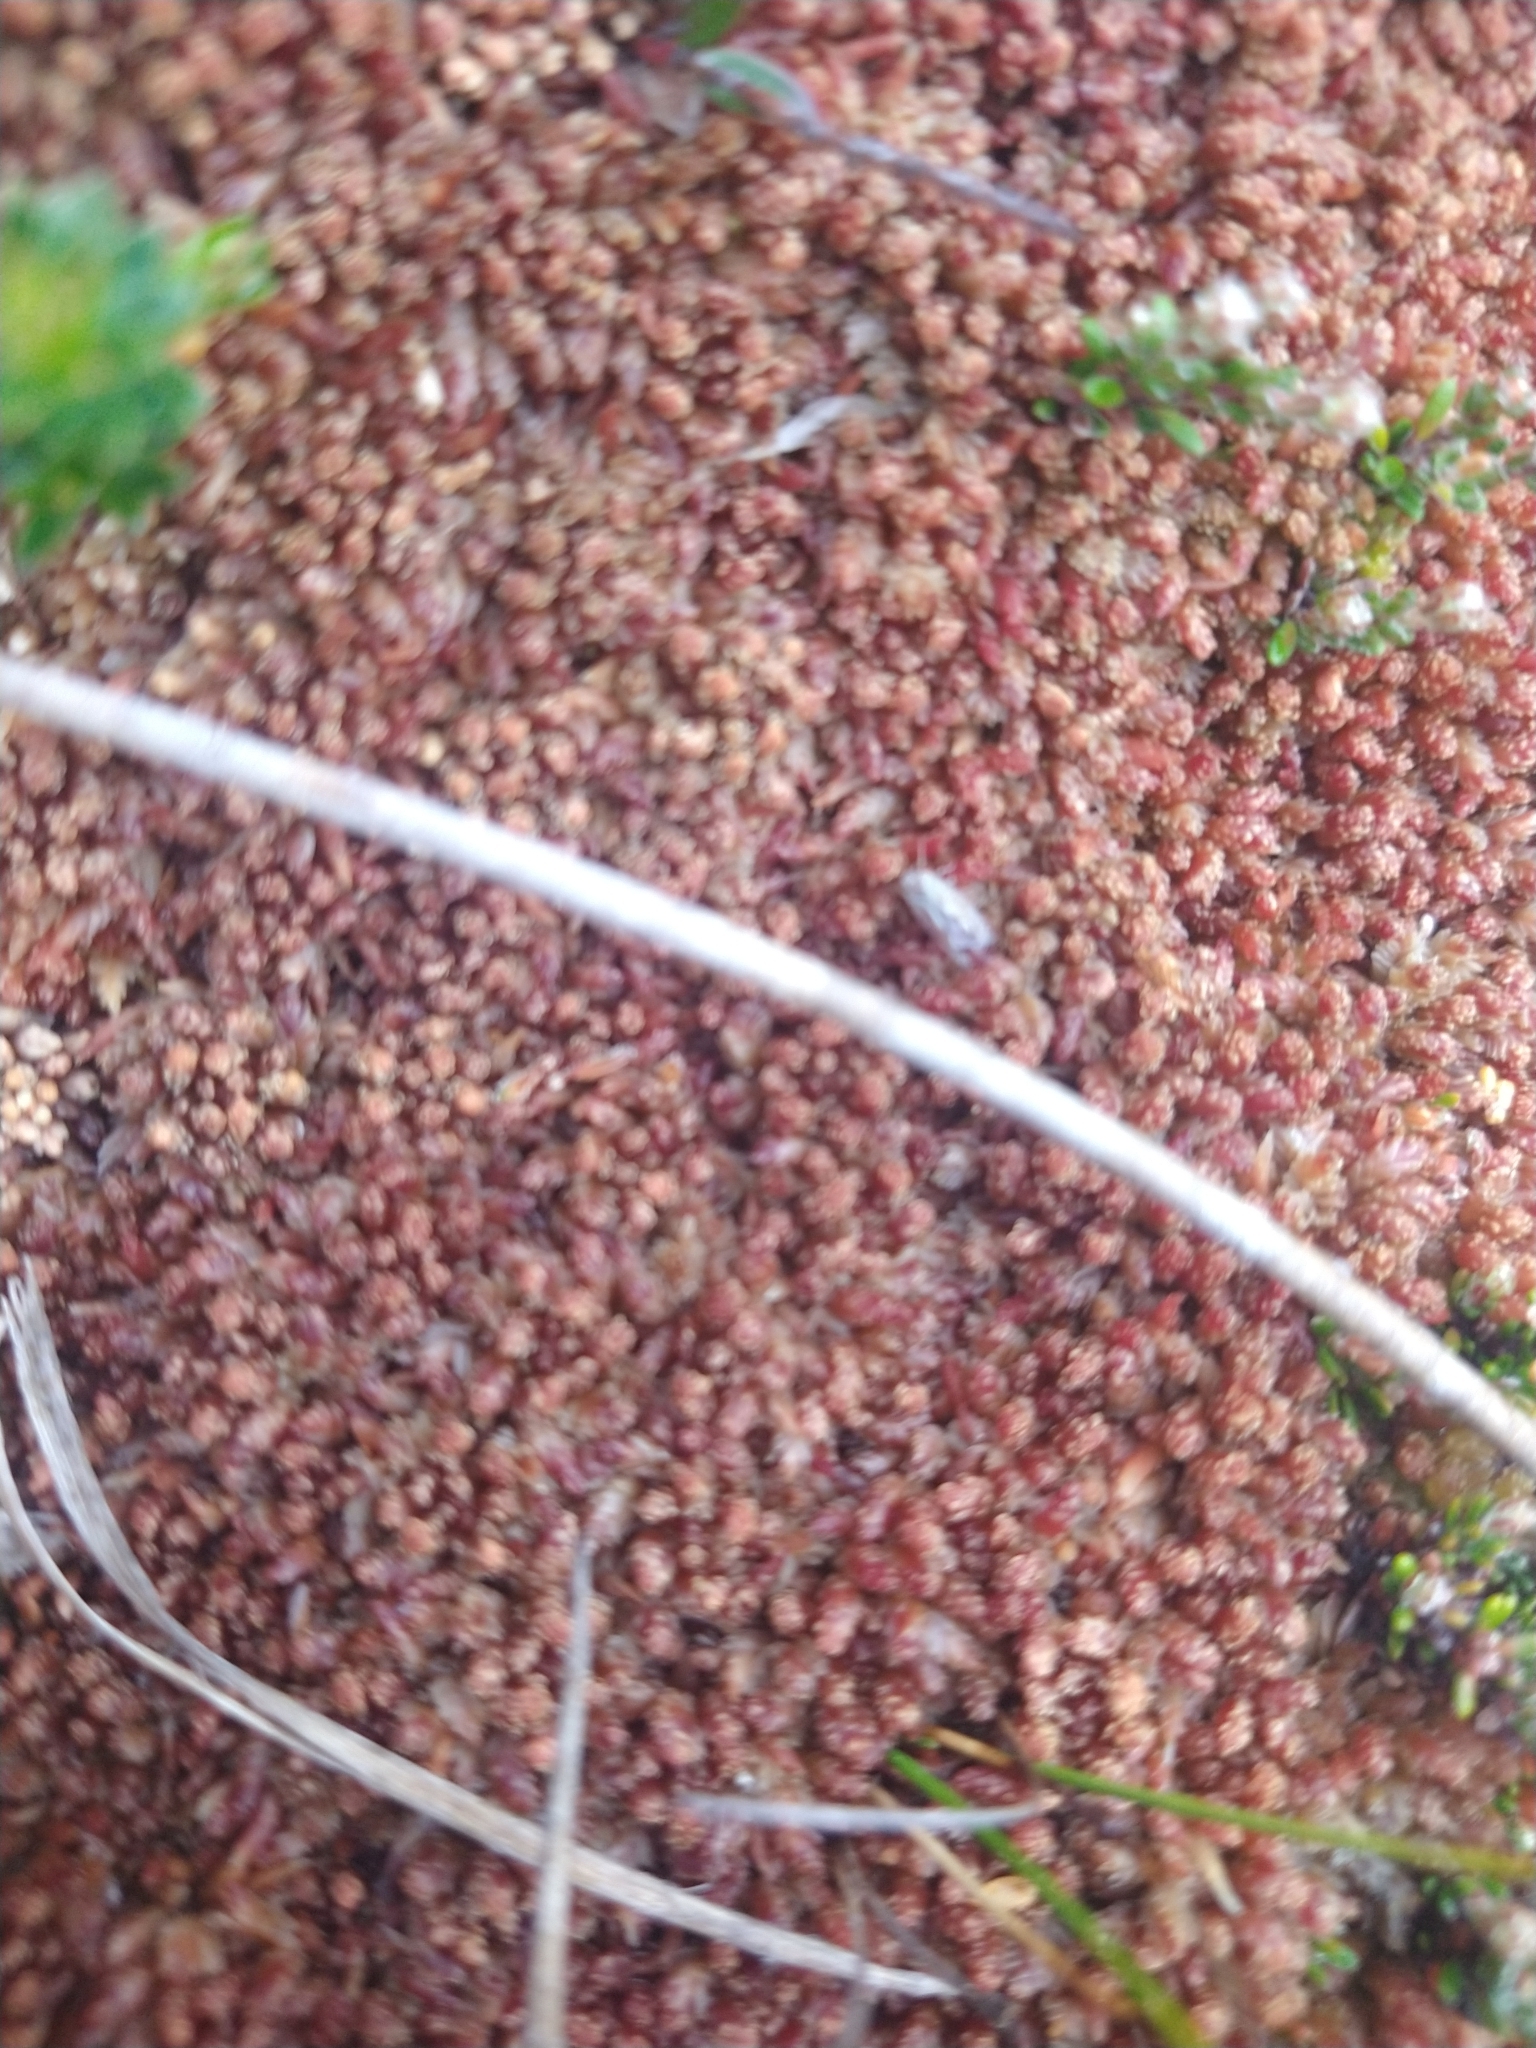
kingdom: Plantae
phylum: Bryophyta
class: Sphagnopsida
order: Sphagnales
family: Sphagnaceae
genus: Sphagnum
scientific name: Sphagnum magellanicum
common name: Magellan's peat moss
